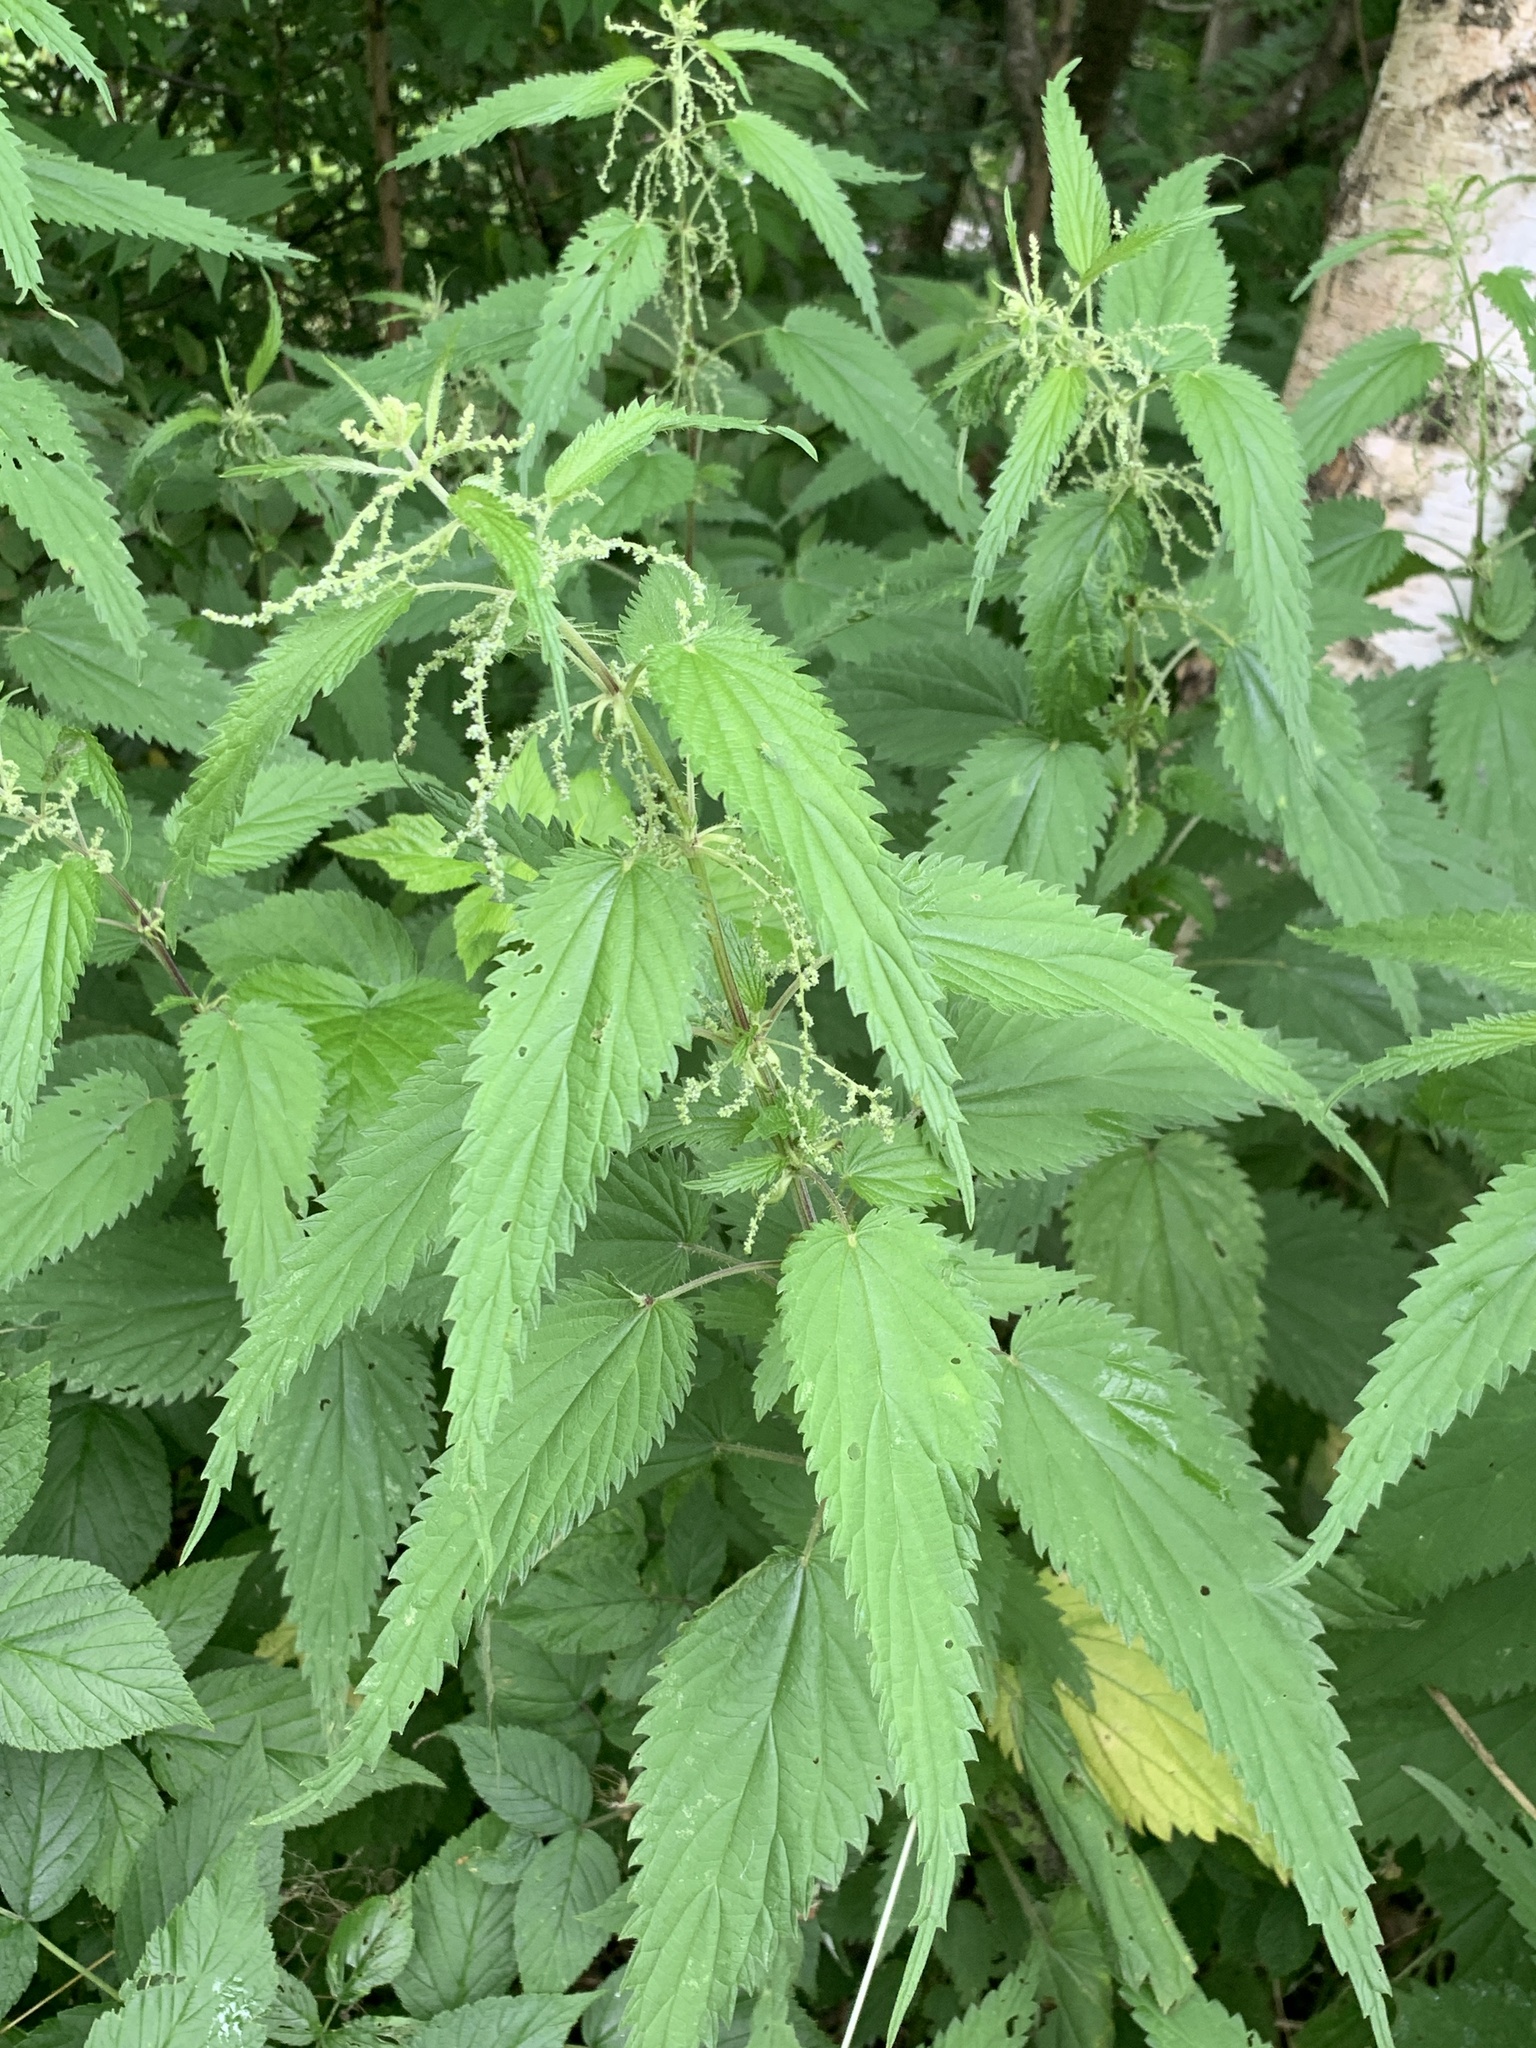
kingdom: Plantae
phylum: Tracheophyta
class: Magnoliopsida
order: Rosales
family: Urticaceae
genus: Urtica
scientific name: Urtica dioica
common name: Common nettle
